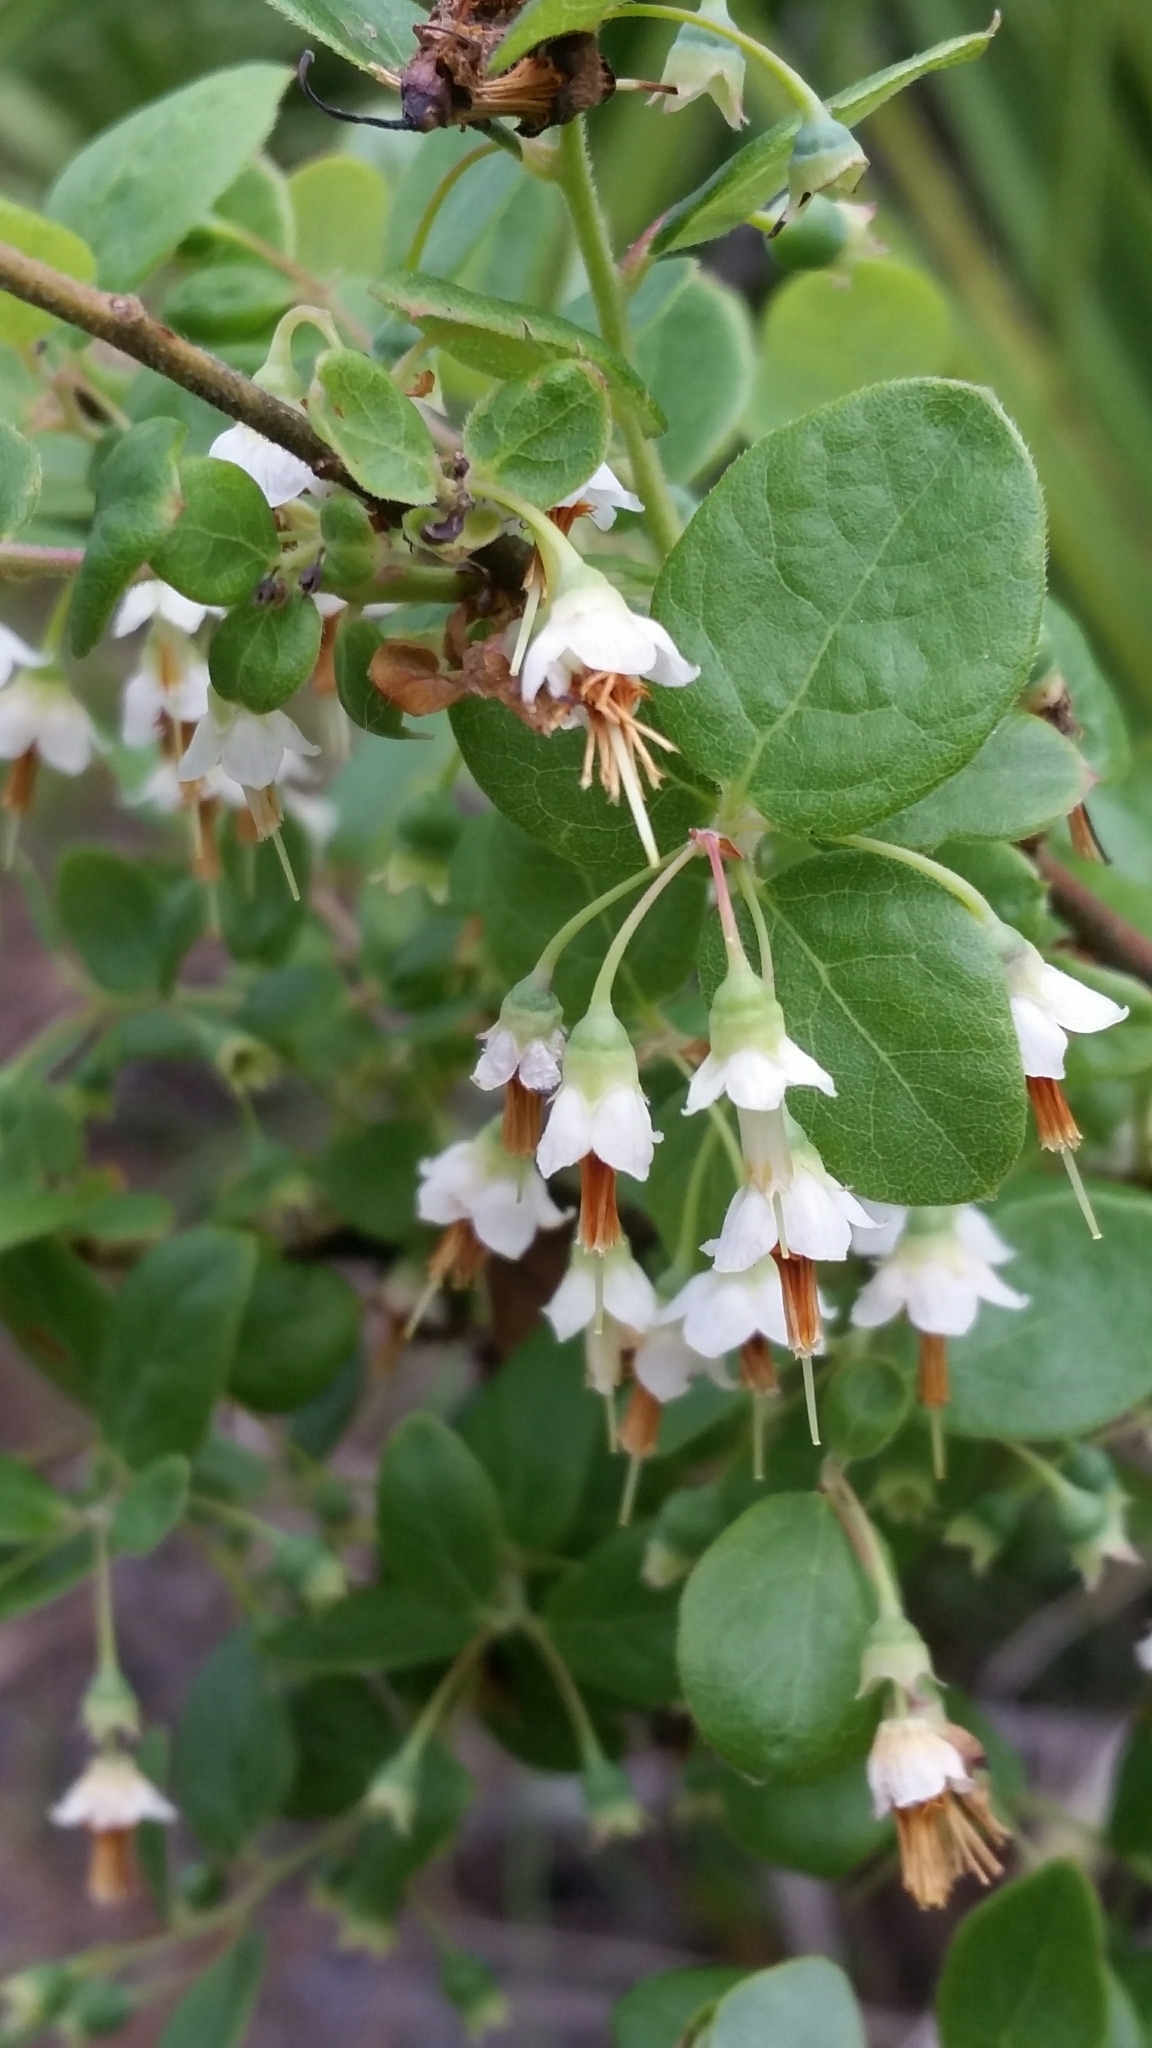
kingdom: Plantae
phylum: Tracheophyta
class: Magnoliopsida
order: Ericales
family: Ericaceae
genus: Vaccinium
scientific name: Vaccinium stamineum
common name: Deerberry
